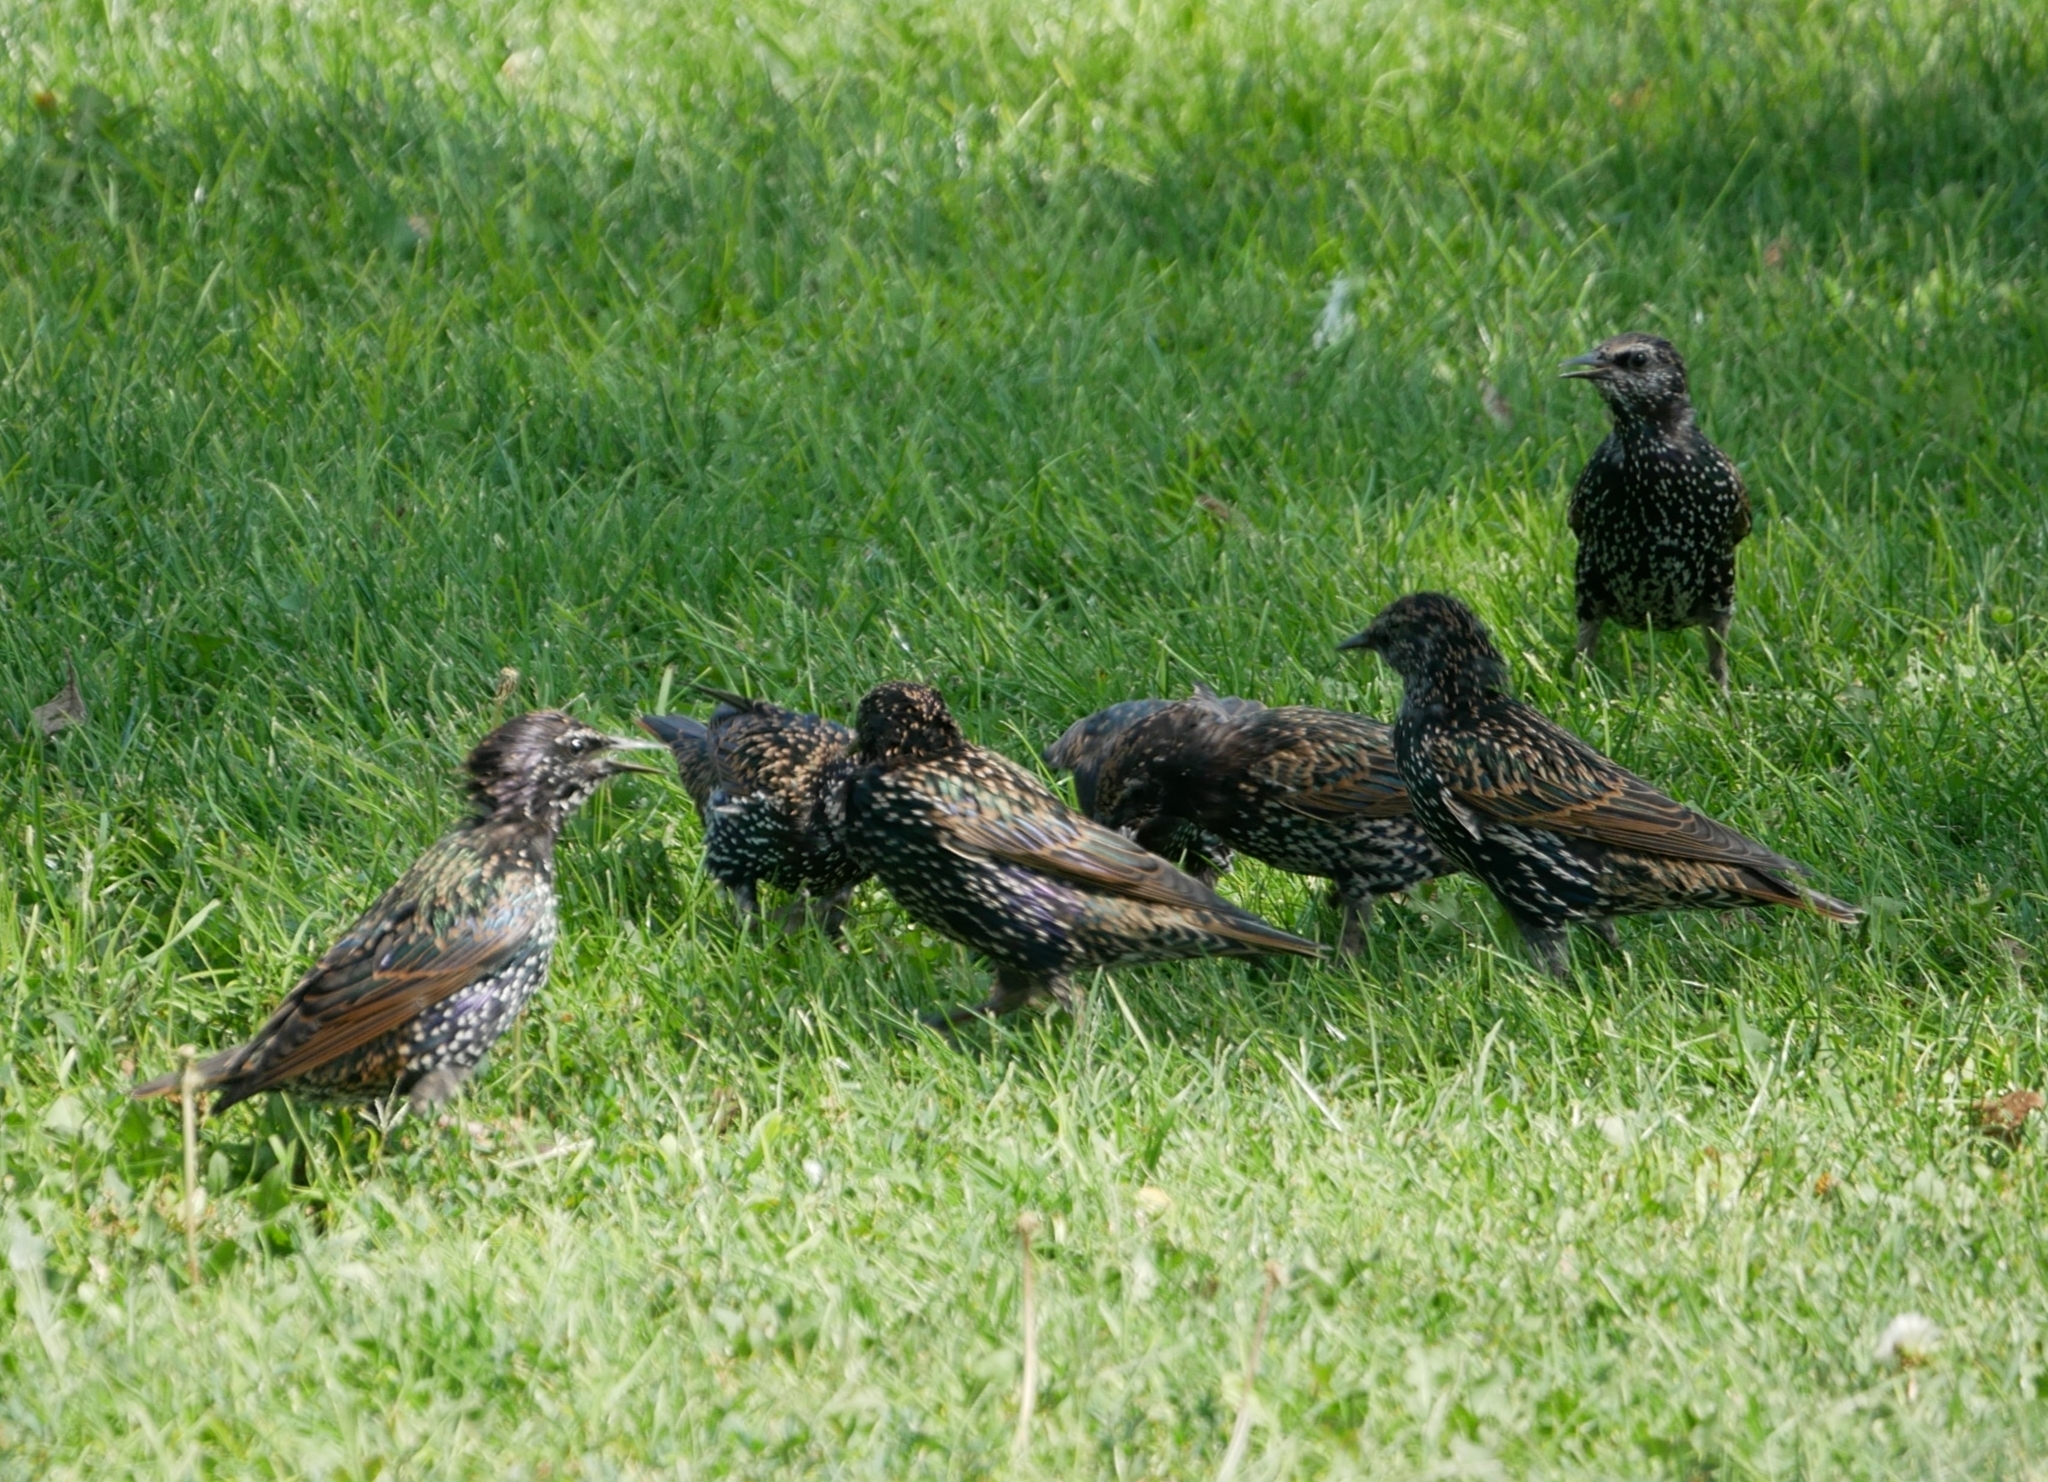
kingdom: Animalia
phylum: Chordata
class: Aves
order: Passeriformes
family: Sturnidae
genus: Sturnus
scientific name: Sturnus vulgaris
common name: Common starling
